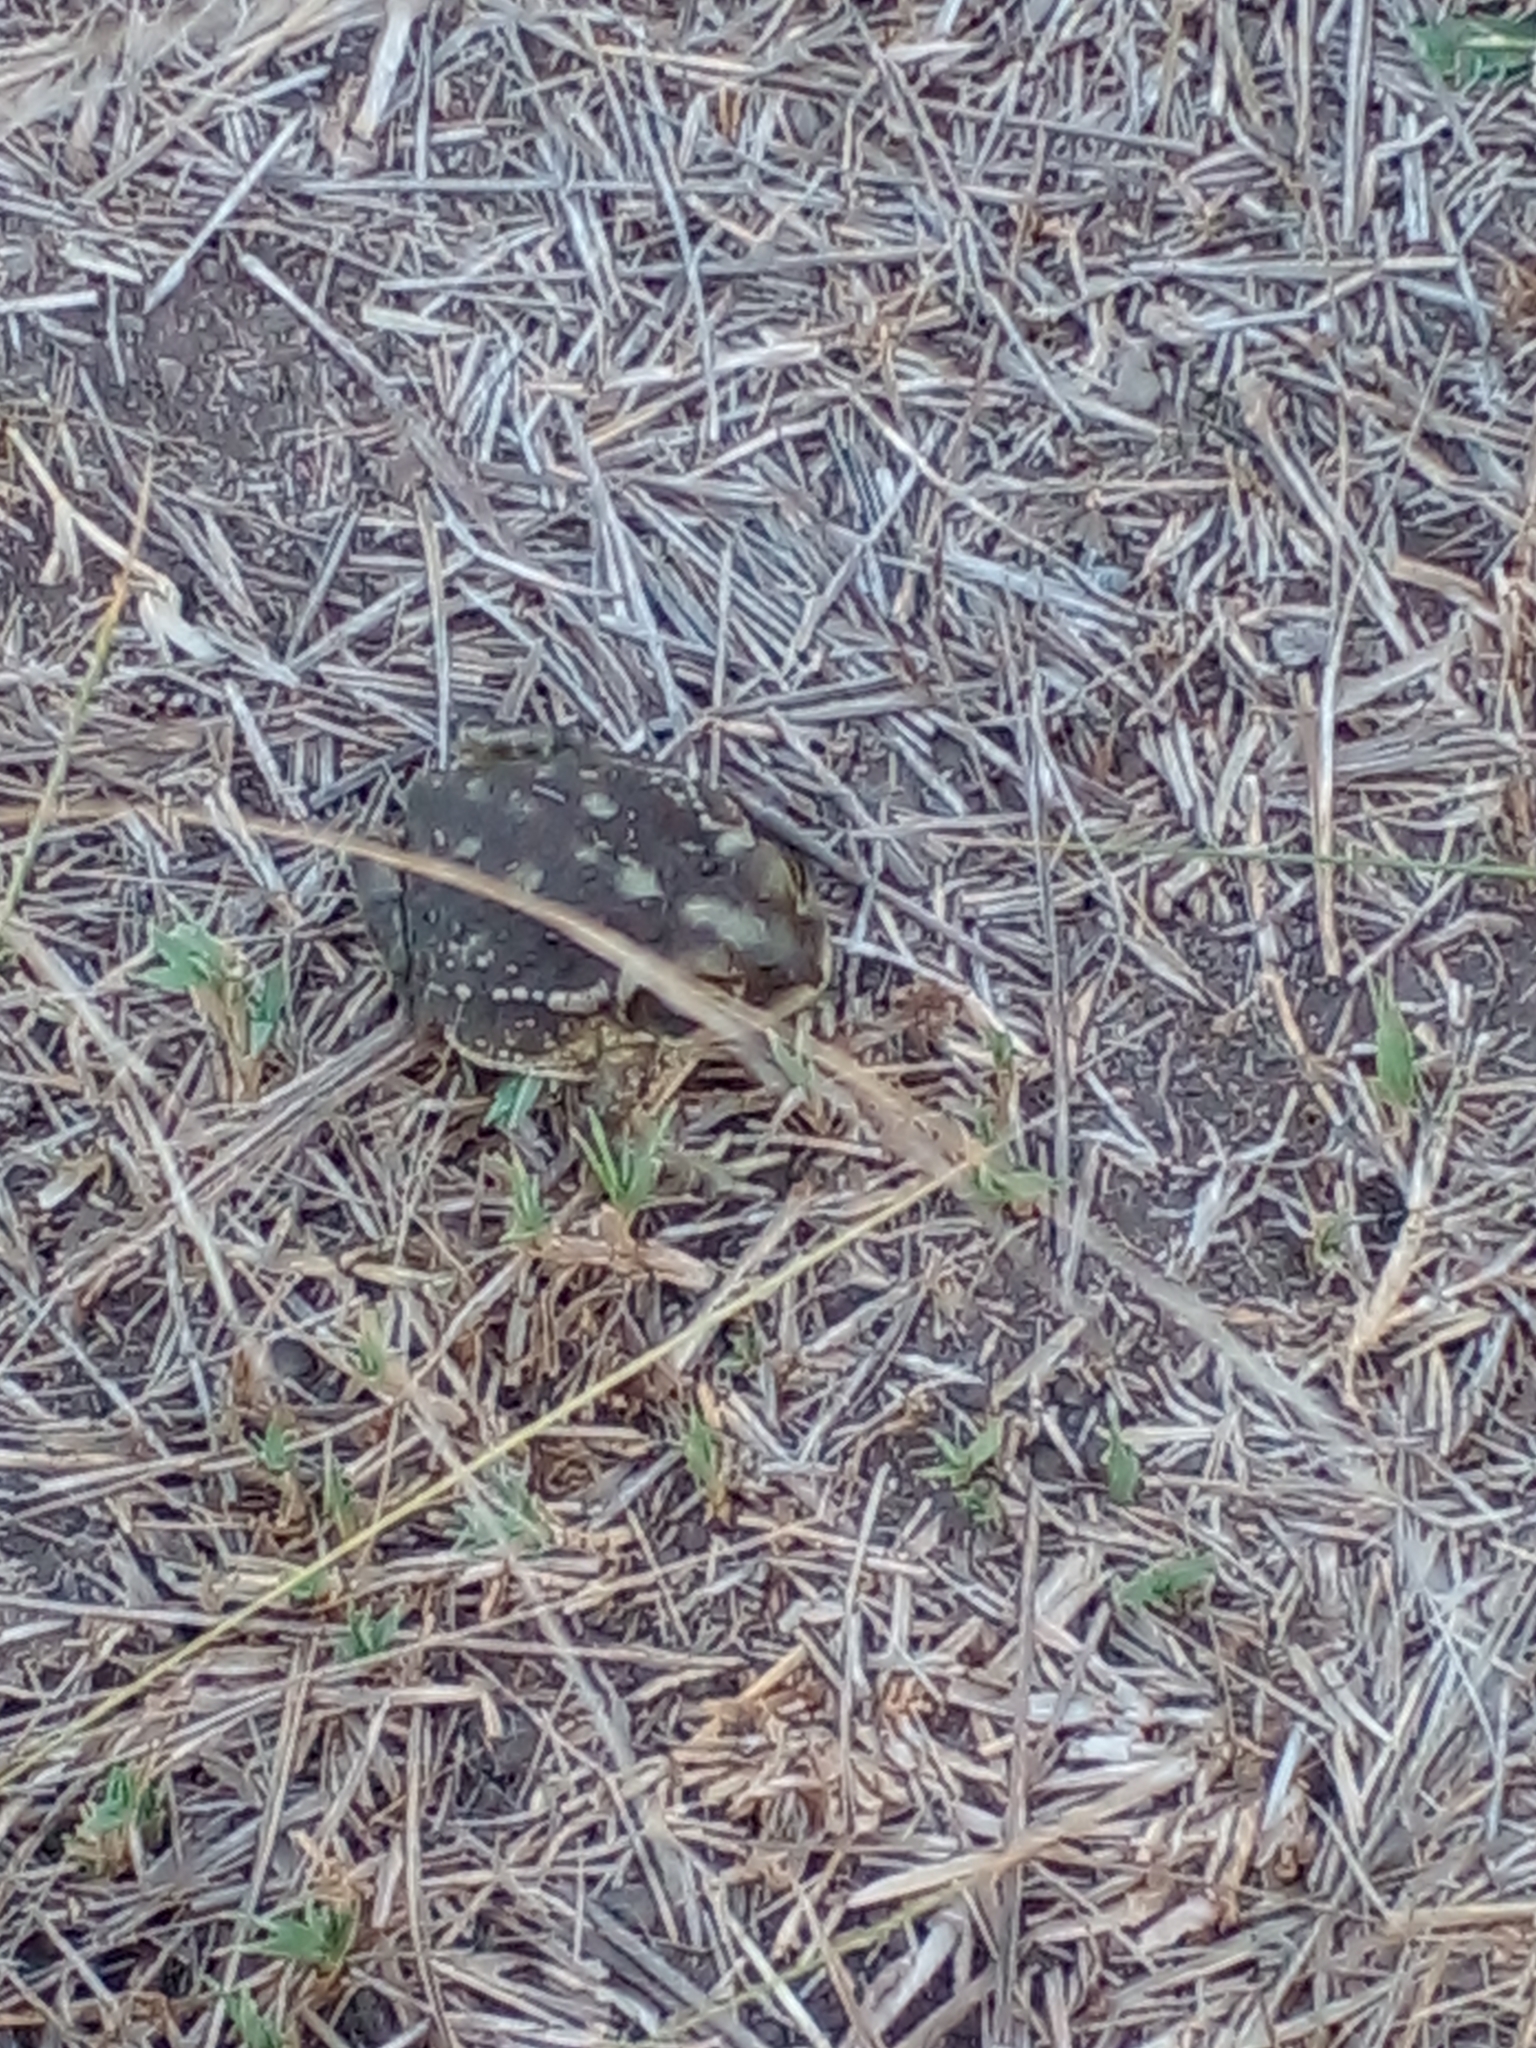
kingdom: Animalia
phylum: Chordata
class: Amphibia
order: Anura
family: Bufonidae
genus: Rhinella
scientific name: Rhinella arenarum
